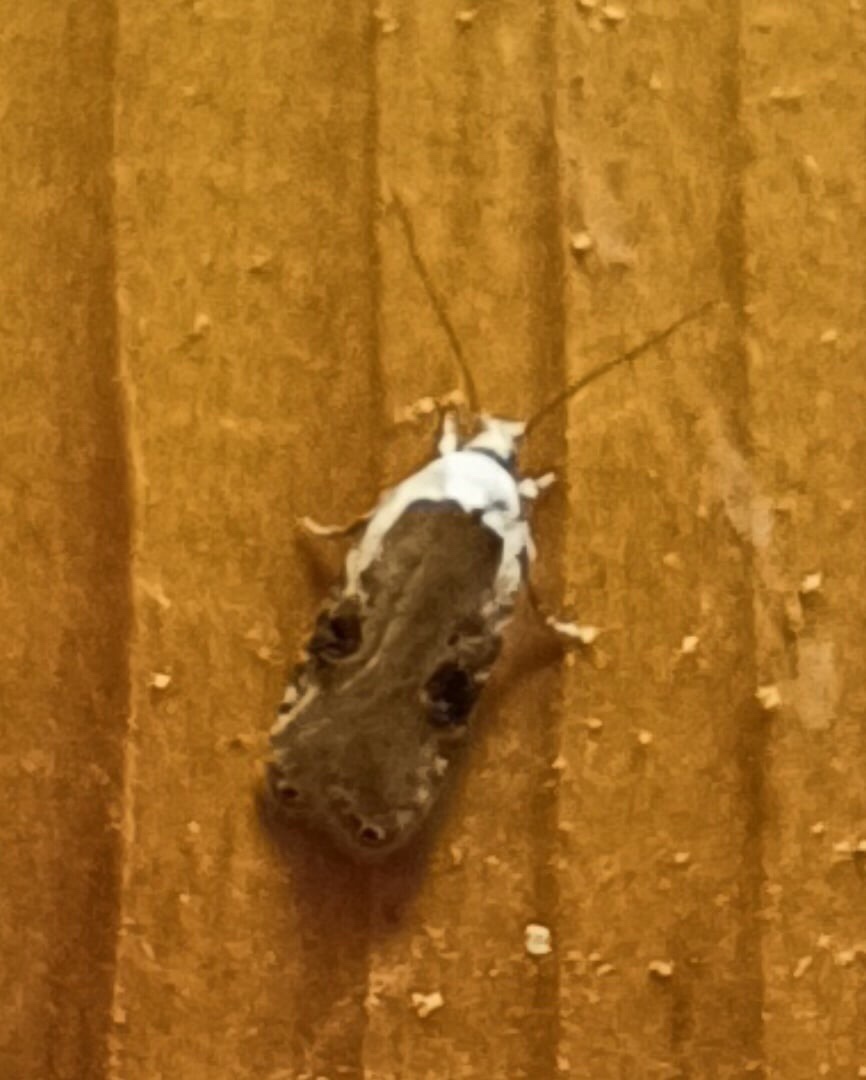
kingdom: Animalia
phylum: Arthropoda
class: Insecta
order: Lepidoptera
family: Depressariidae
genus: Agonopterix
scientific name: Agonopterix alstroemeriana
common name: Moth
